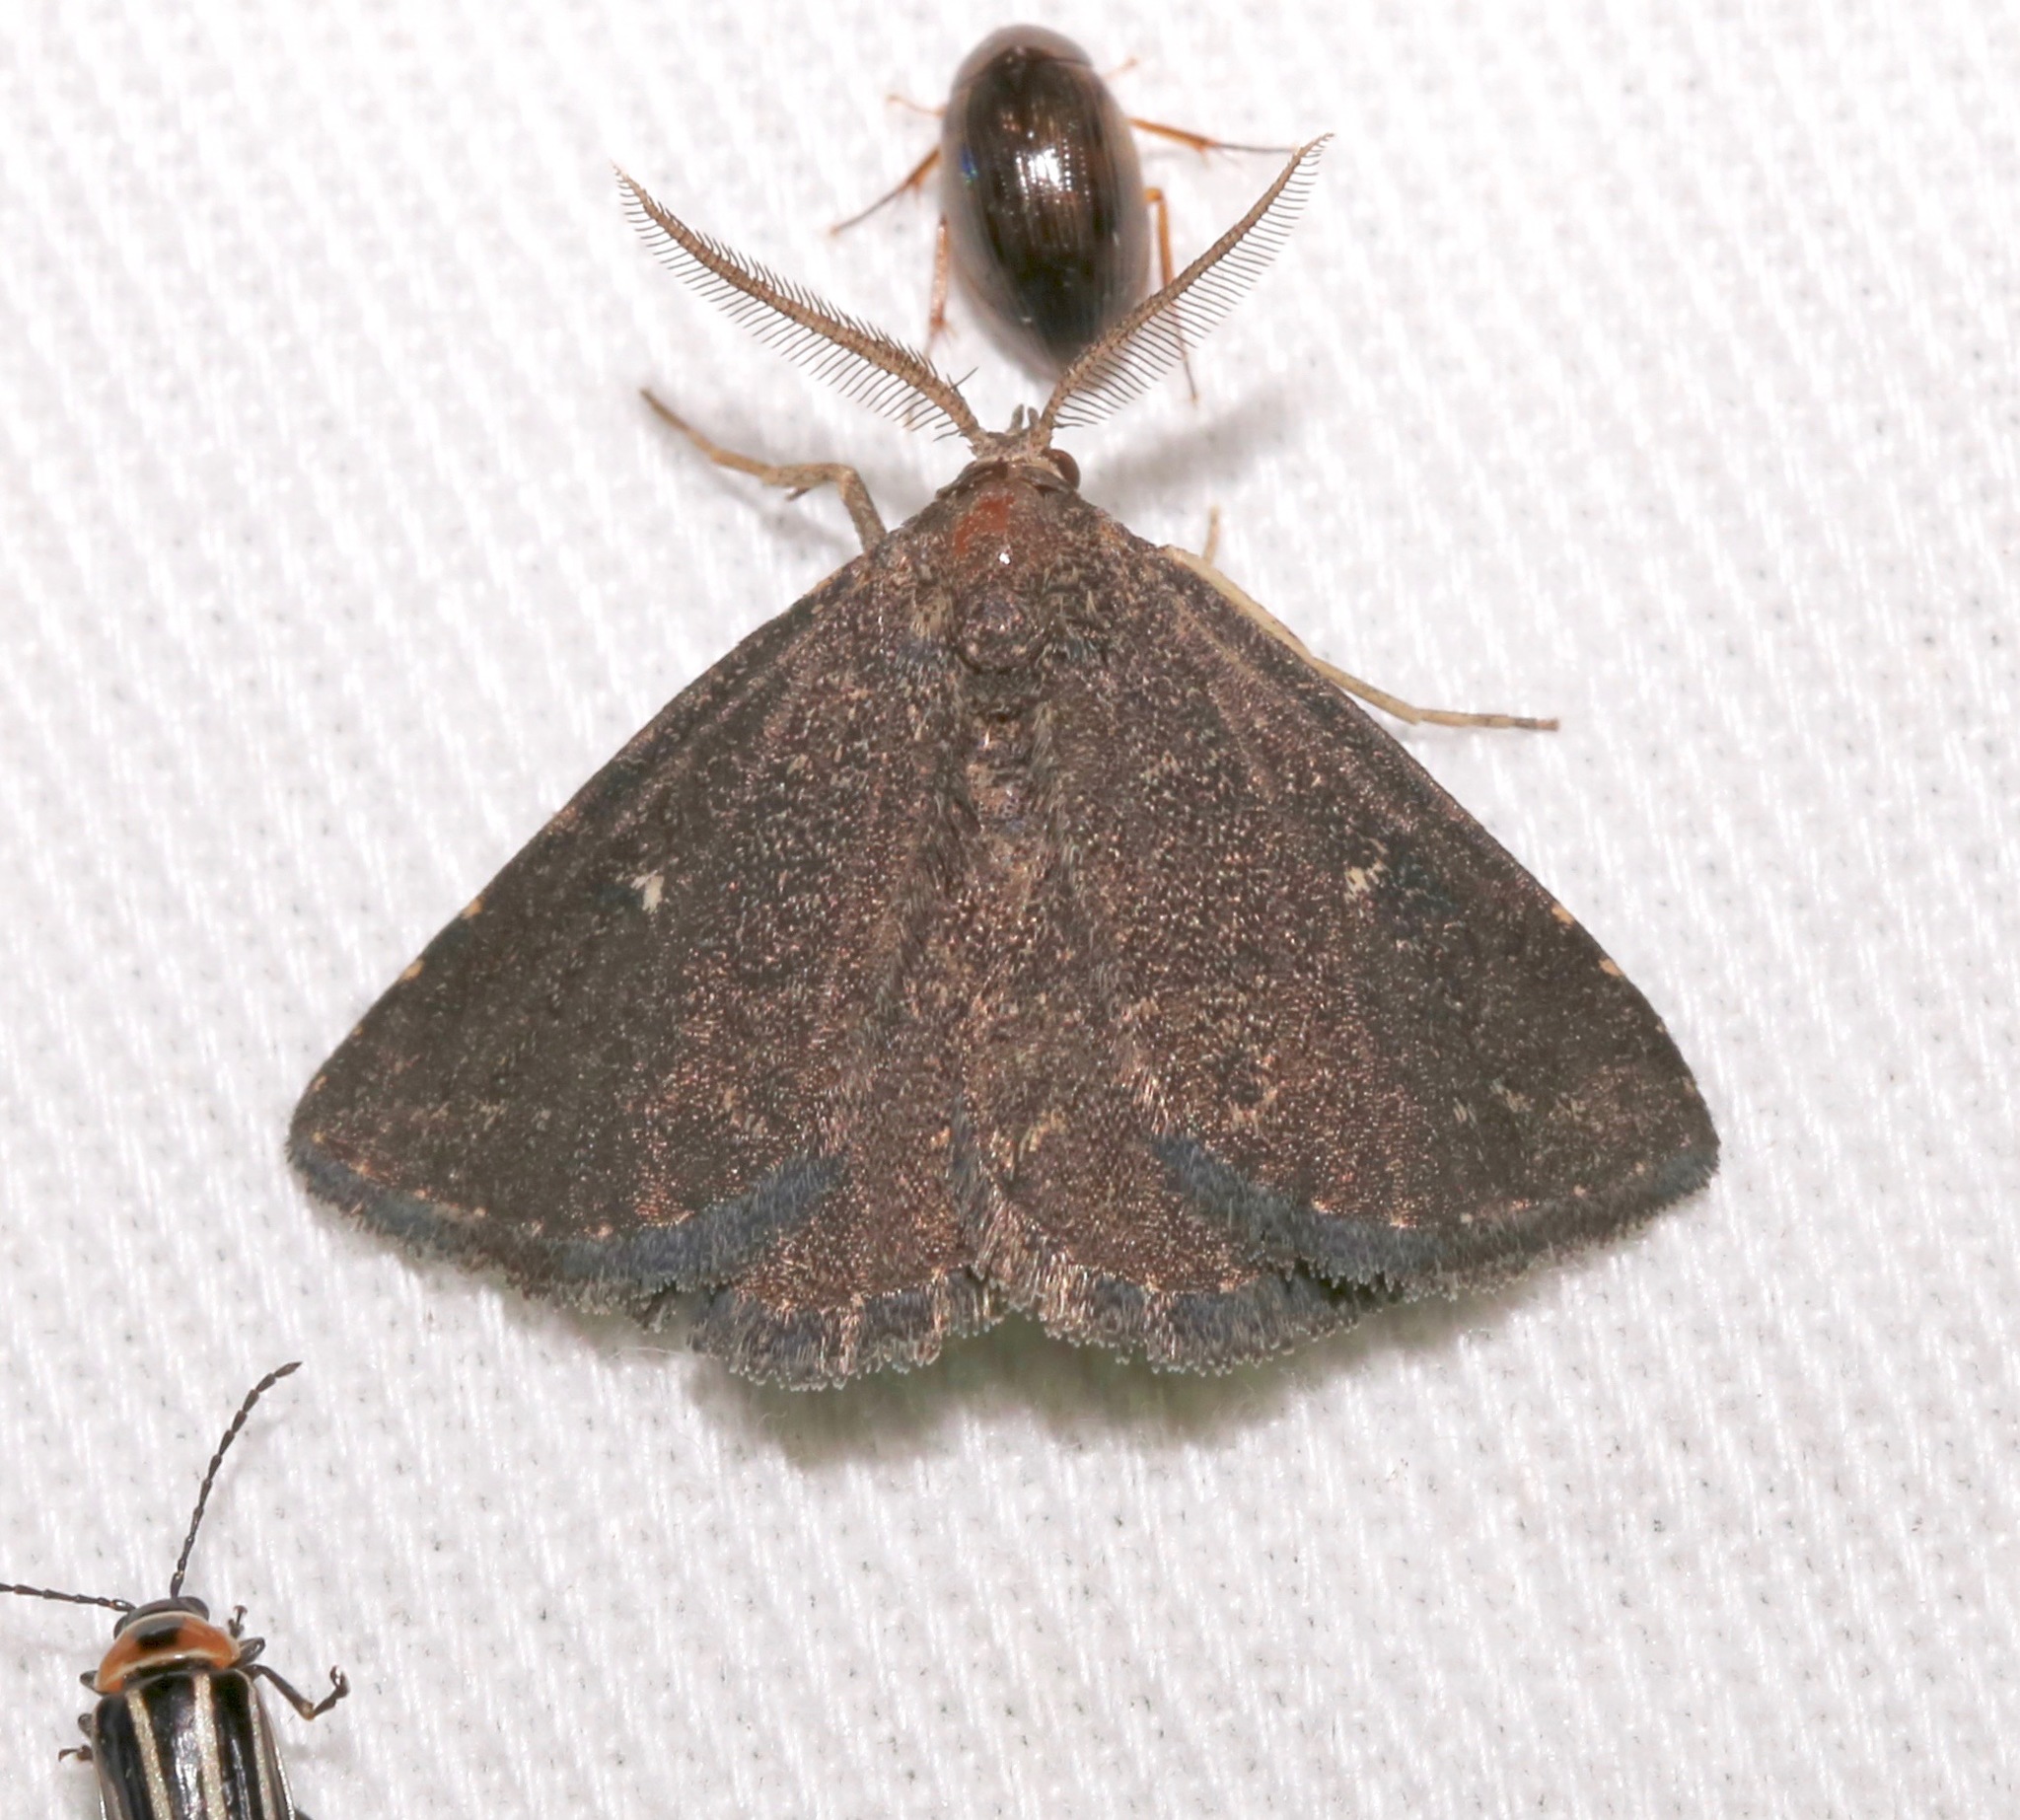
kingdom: Animalia
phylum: Arthropoda
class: Insecta
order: Lepidoptera
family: Erebidae
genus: Prosoparia
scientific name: Prosoparia floridana
